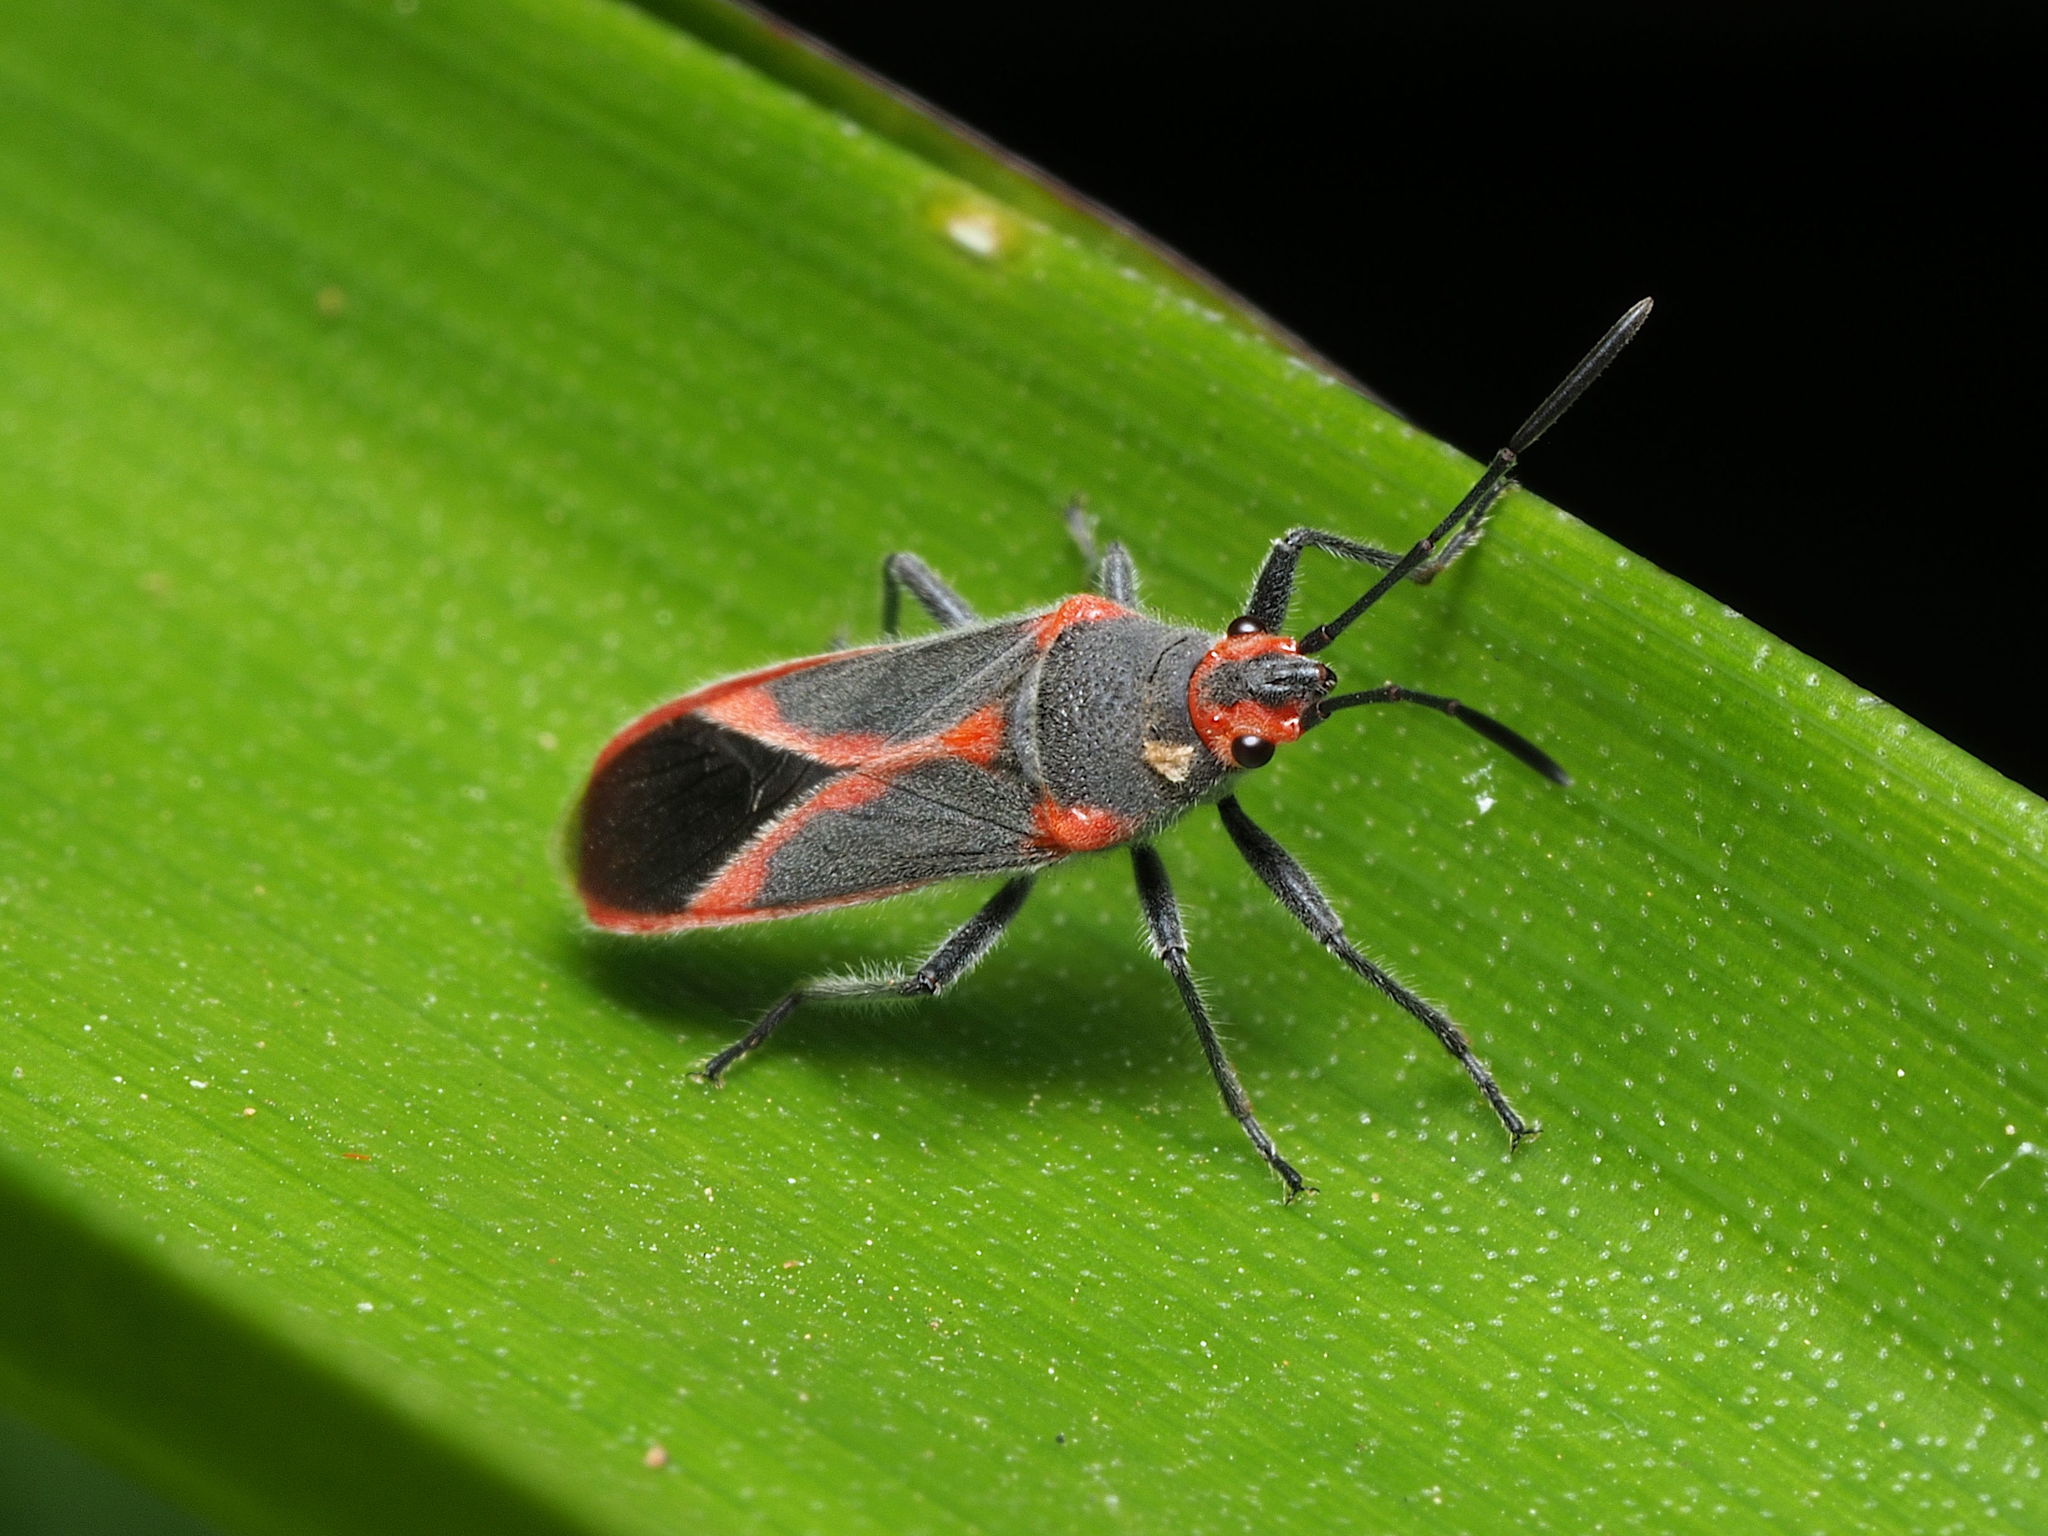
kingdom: Animalia
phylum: Arthropoda
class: Insecta
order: Hemiptera
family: Lygaeidae
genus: Caenocoris
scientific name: Caenocoris nerii
